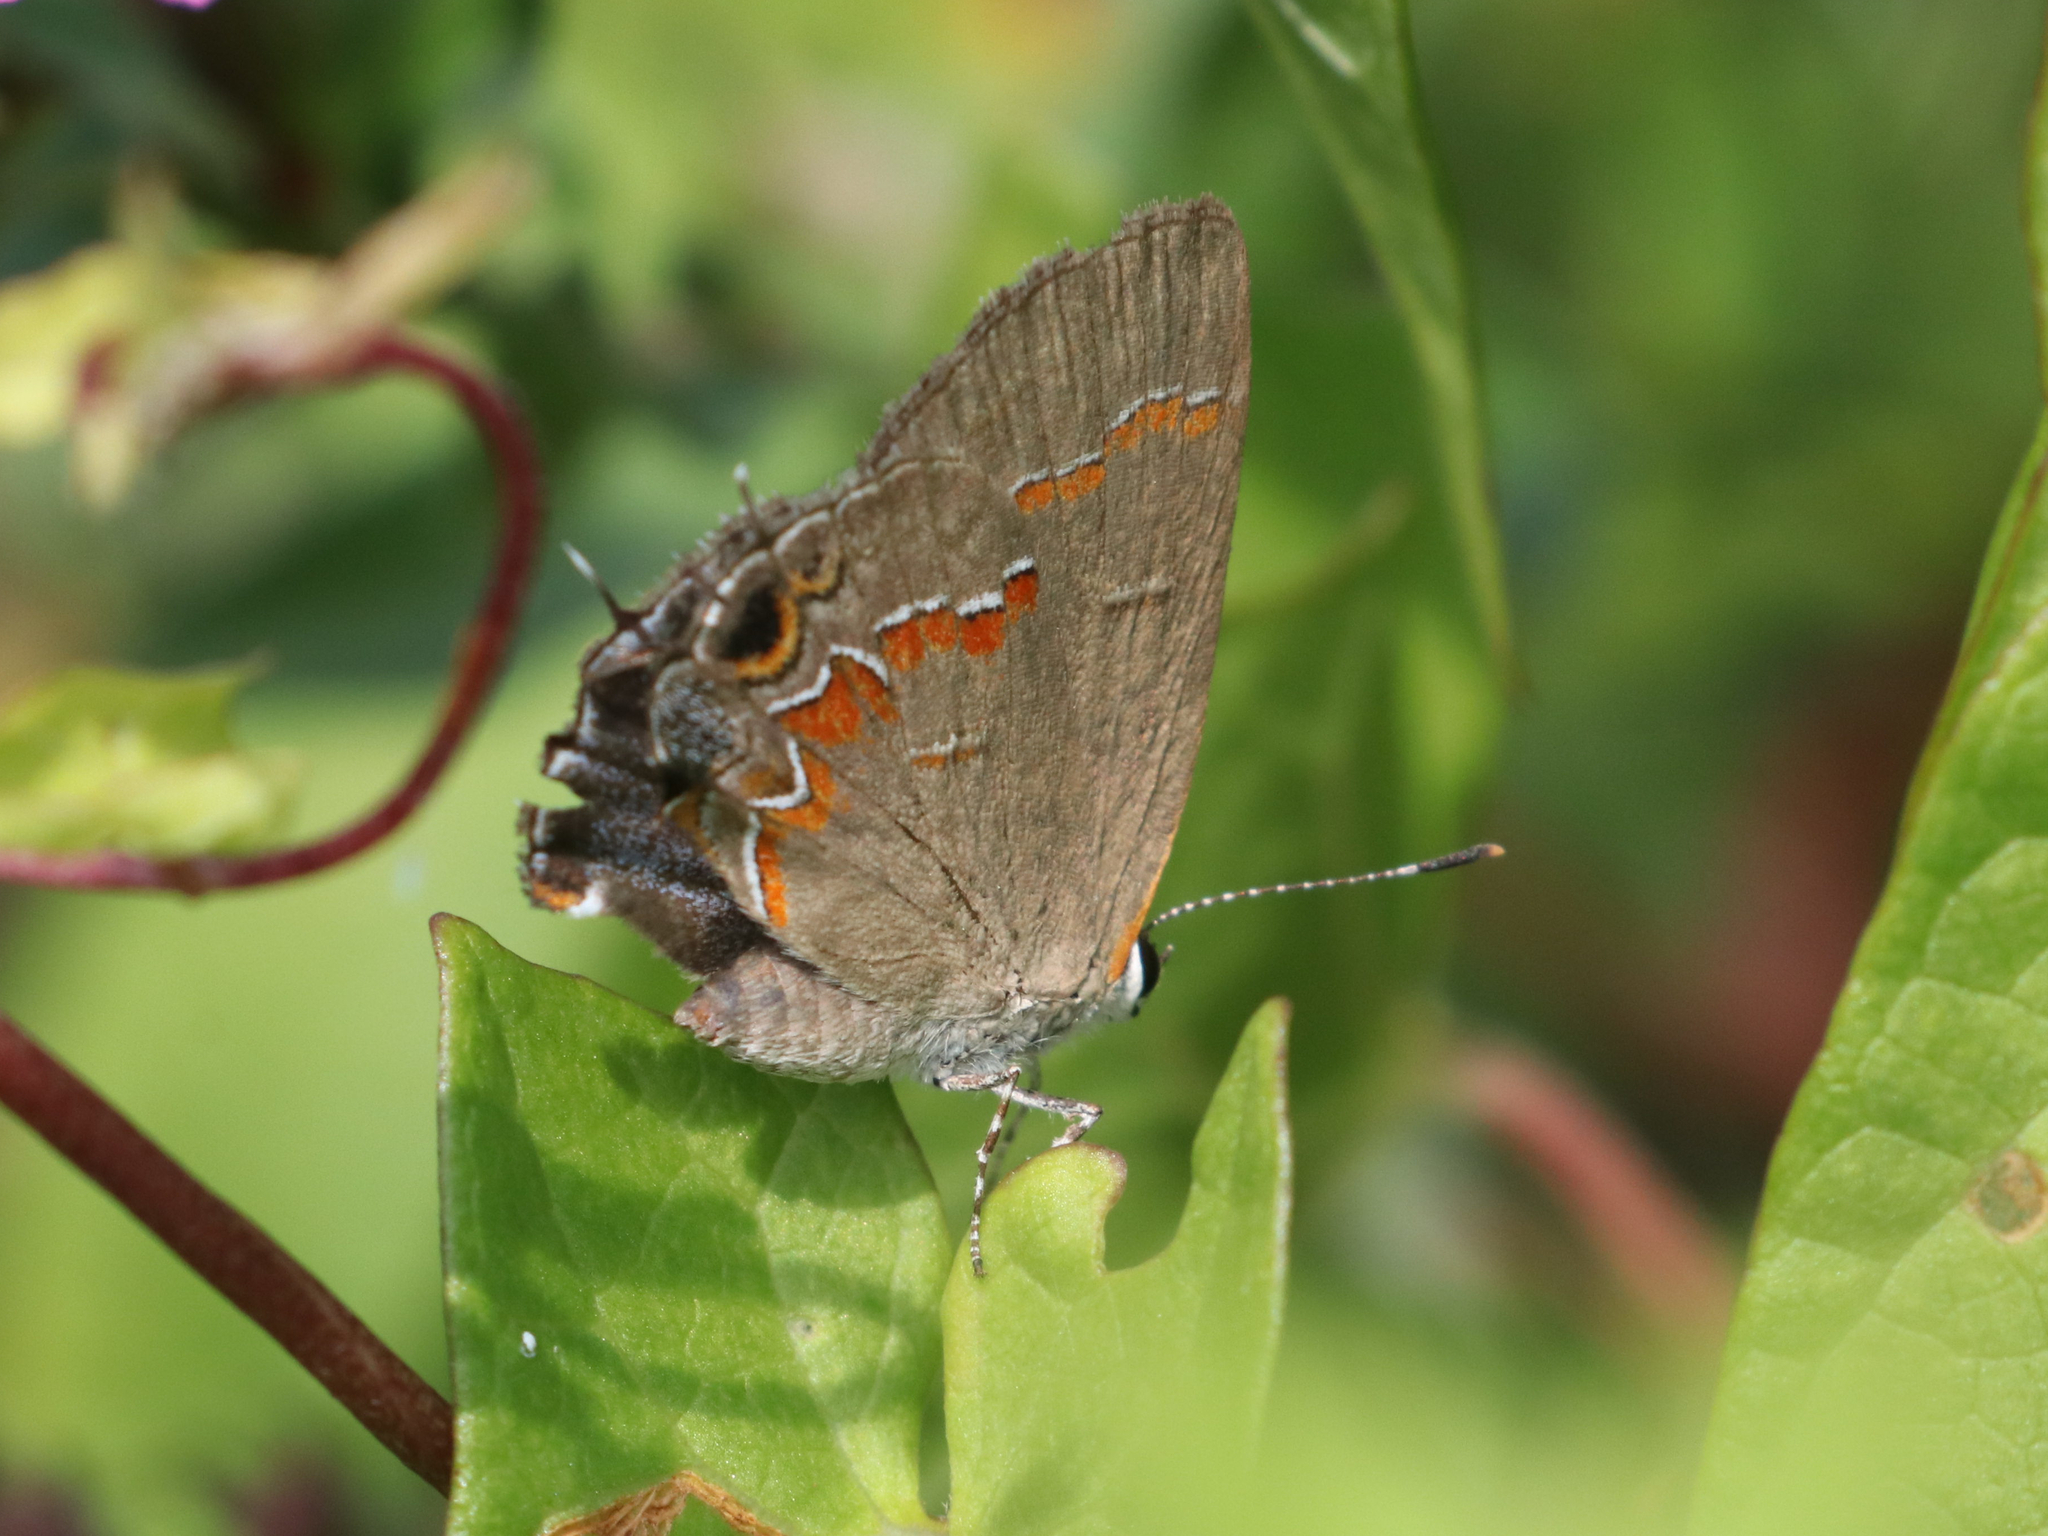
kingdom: Animalia
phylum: Arthropoda
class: Insecta
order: Lepidoptera
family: Lycaenidae
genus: Calycopis
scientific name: Calycopis cecrops
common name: Red-banded hairstreak
